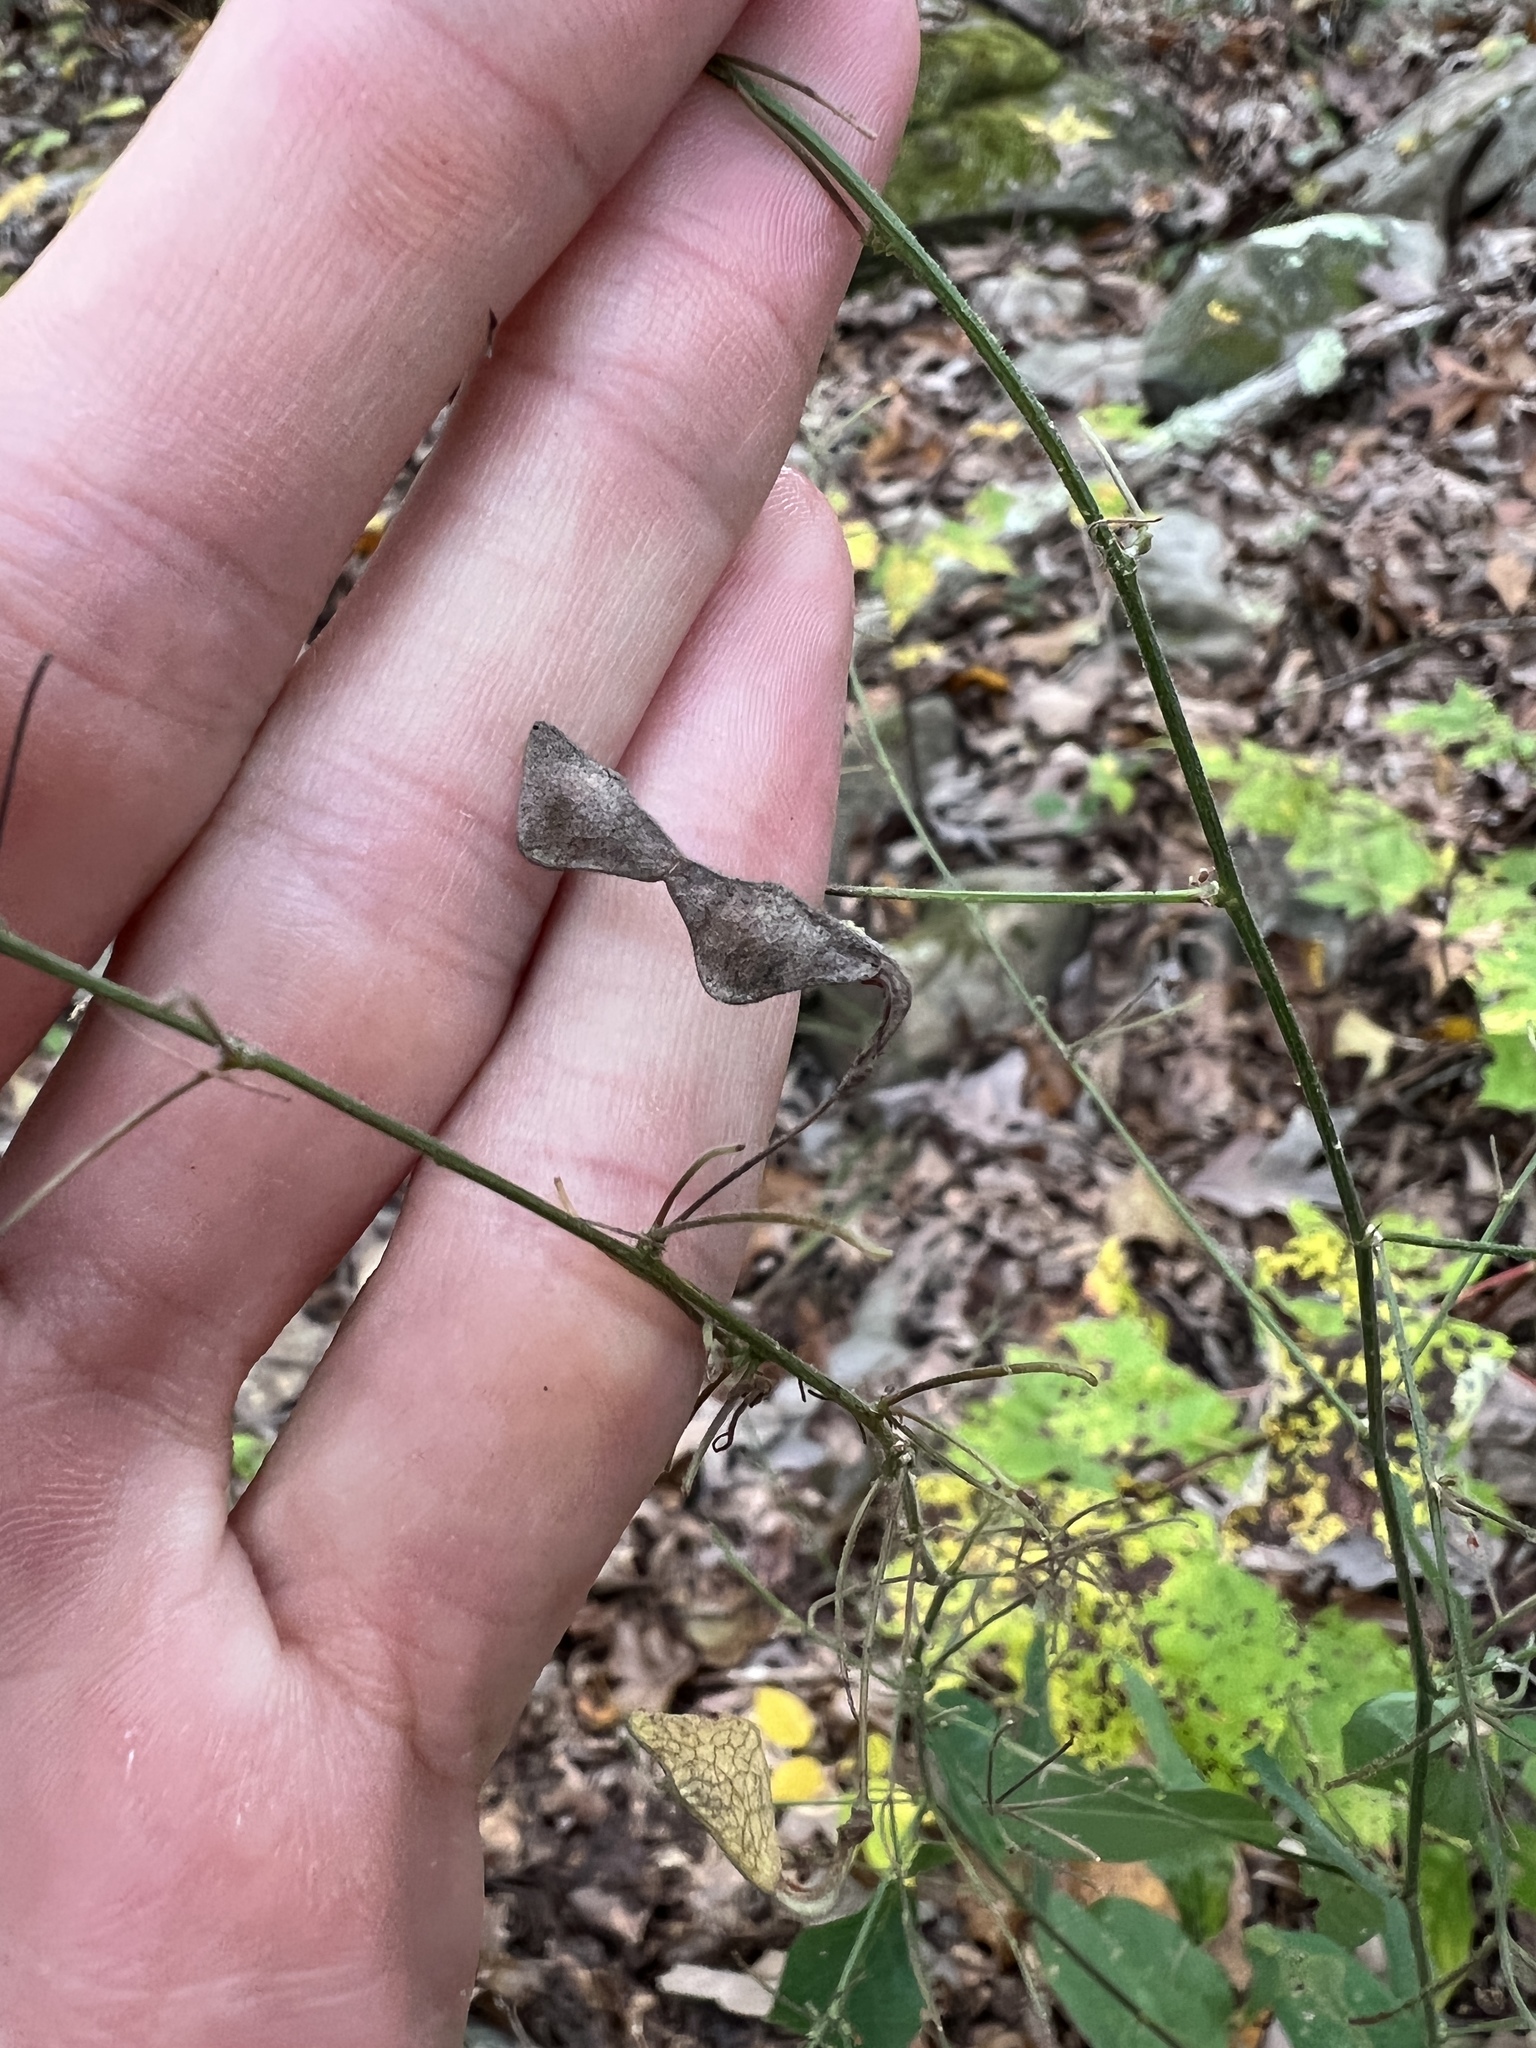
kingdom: Plantae
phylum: Tracheophyta
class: Magnoliopsida
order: Fabales
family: Fabaceae
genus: Desmodium
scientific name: Desmodium perplexum
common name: Perplexed tick trefoil
